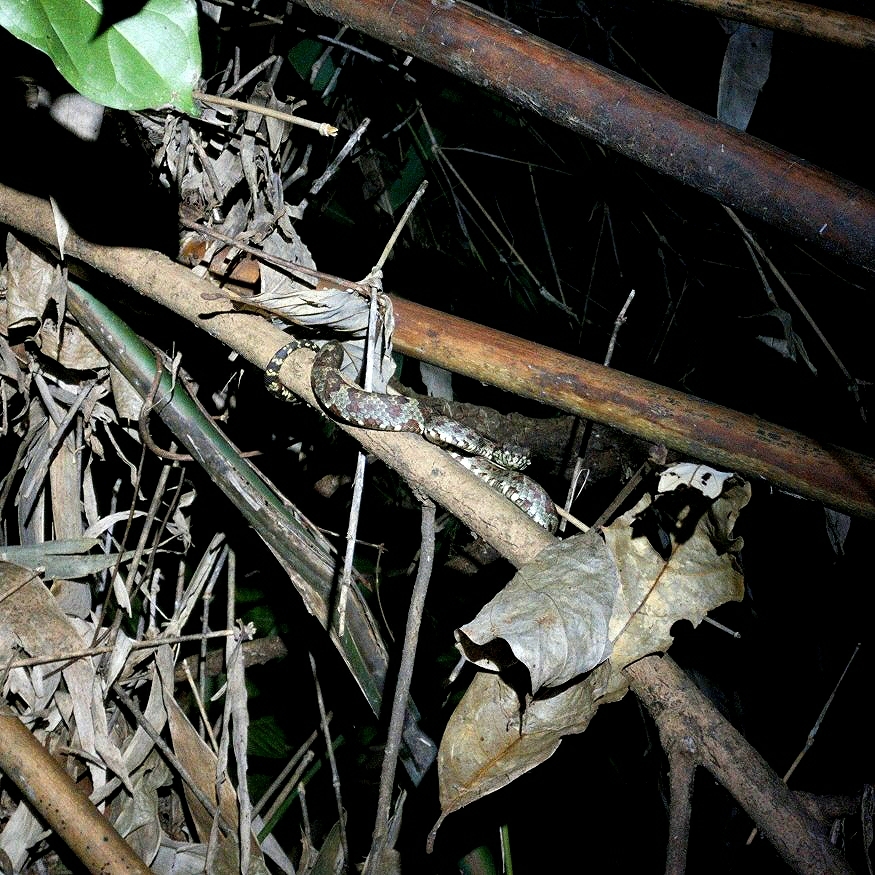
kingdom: Animalia
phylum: Chordata
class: Squamata
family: Viperidae
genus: Craspedocephalus
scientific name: Craspedocephalus anamallensis
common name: Malabarian pit viper
